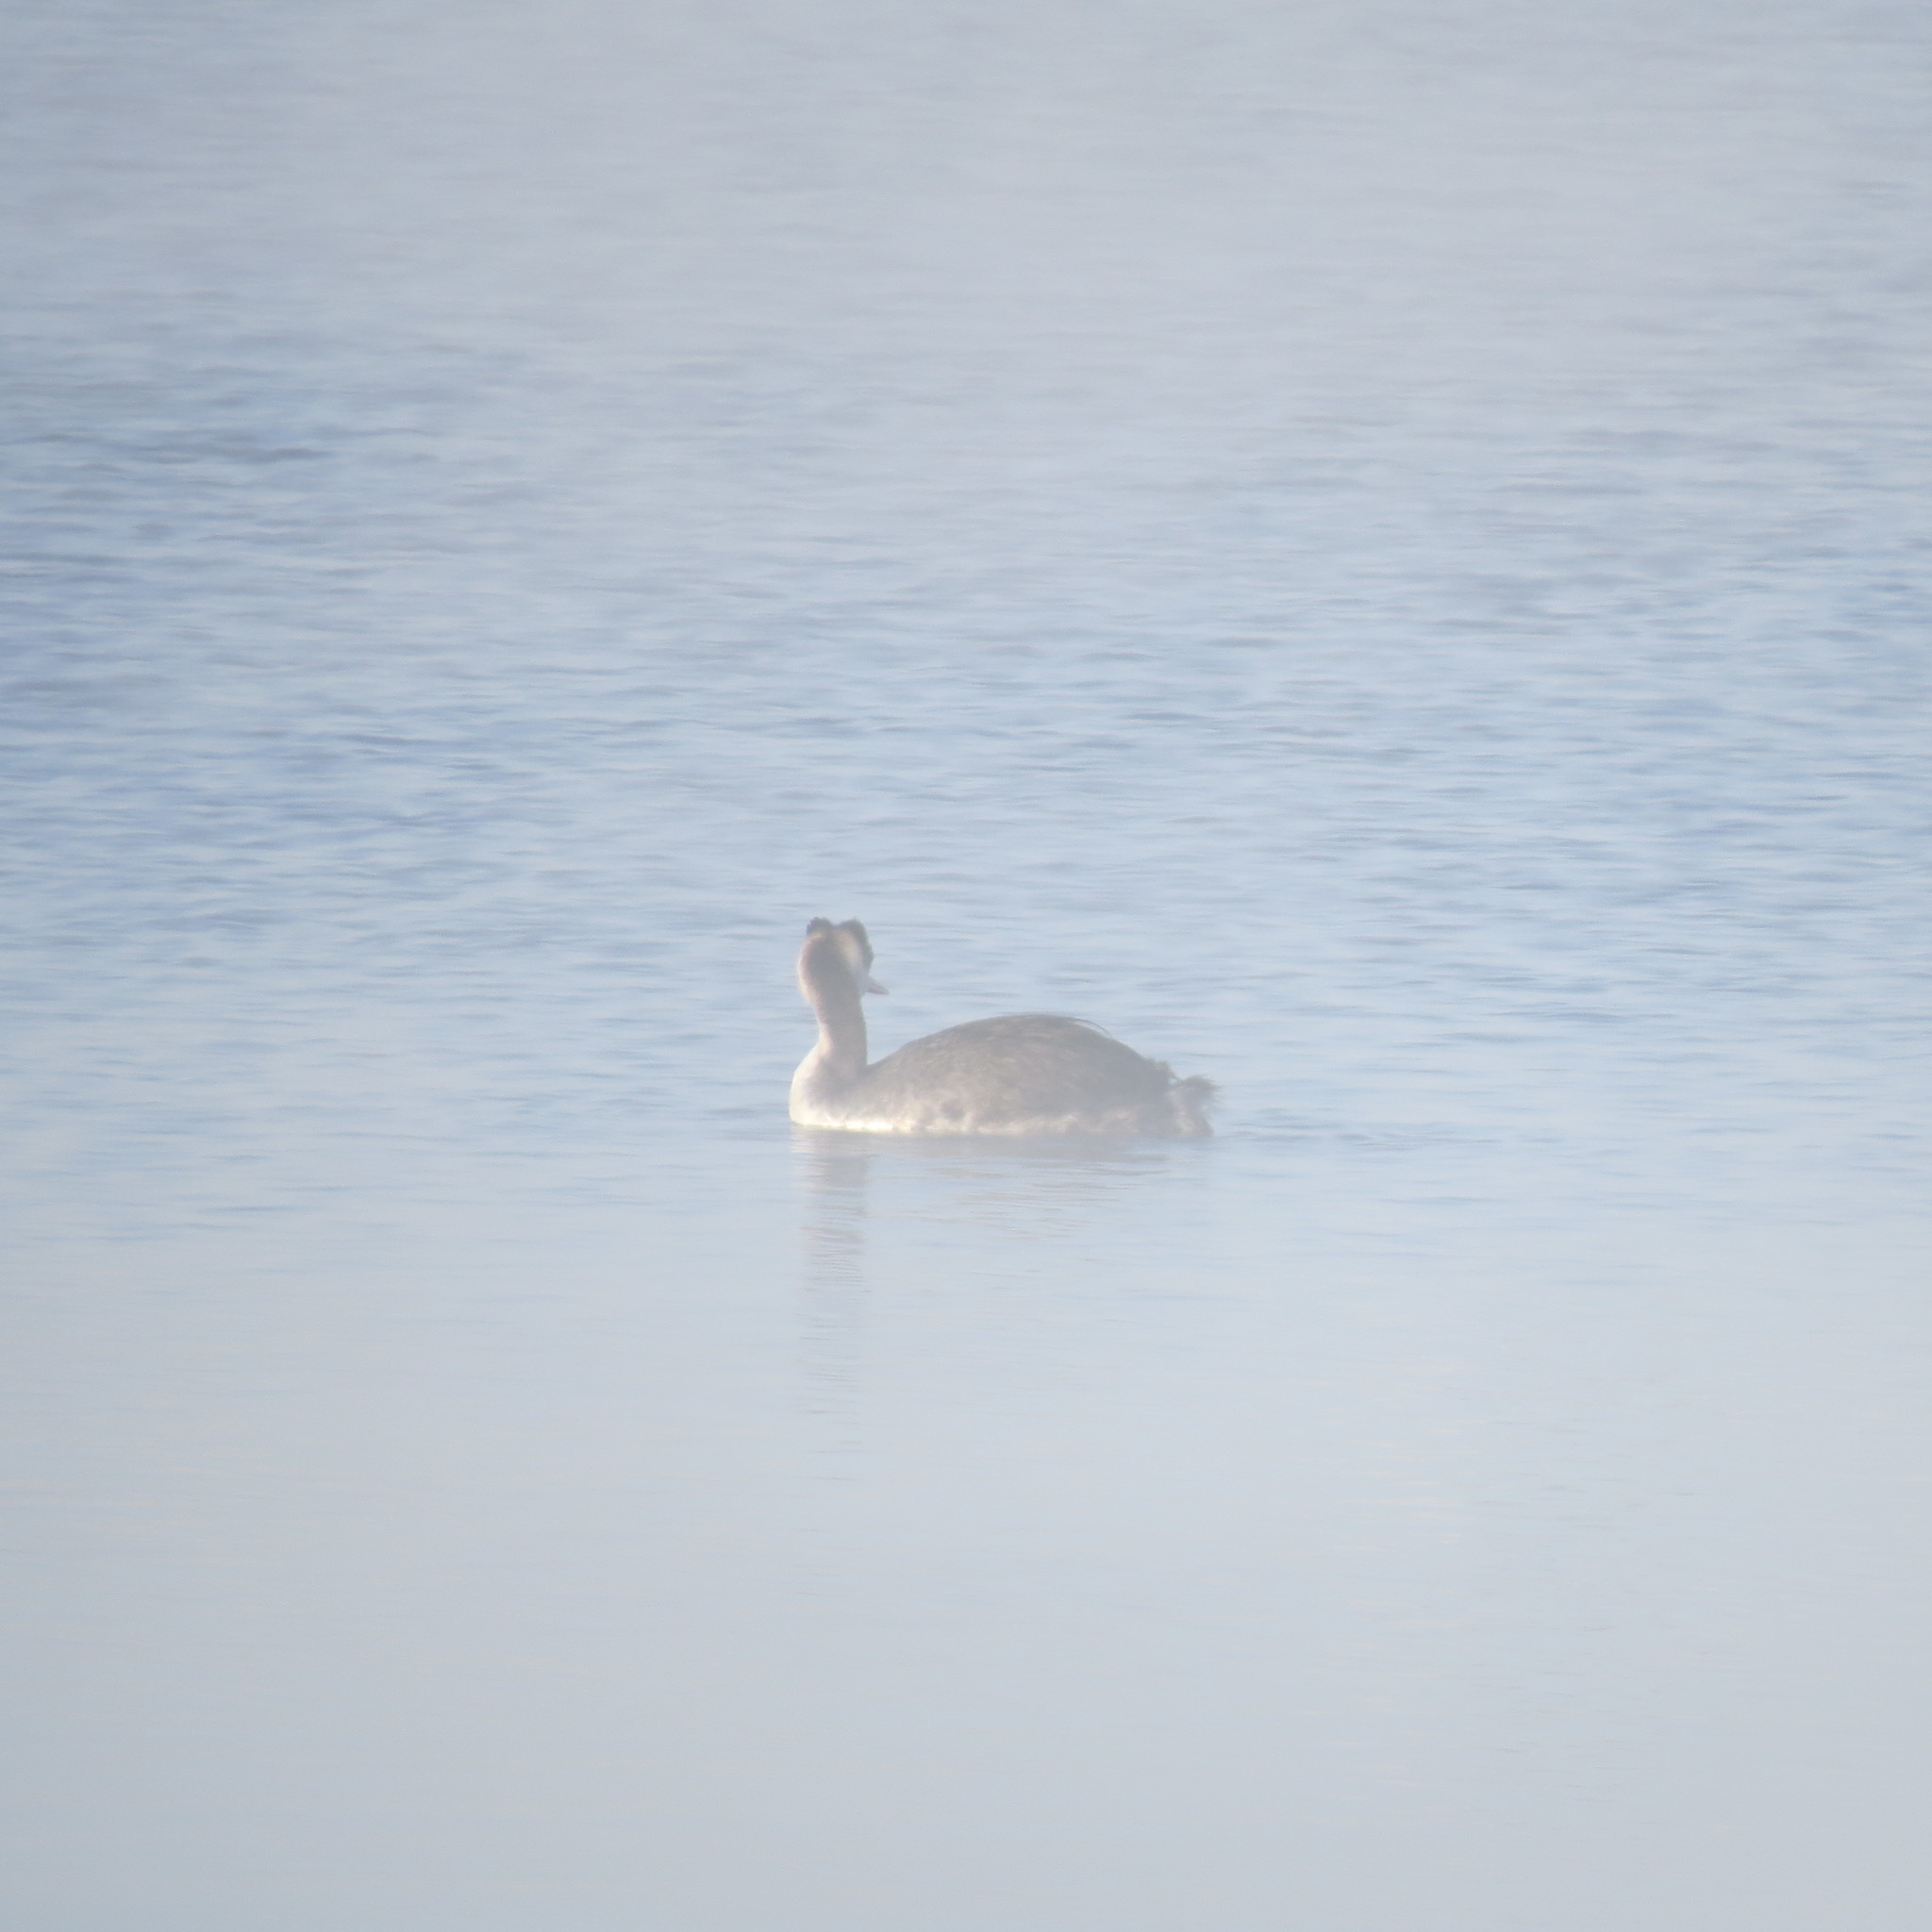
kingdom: Animalia
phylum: Chordata
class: Aves
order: Podicipediformes
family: Podicipedidae
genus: Podiceps
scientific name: Podiceps cristatus
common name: Great crested grebe
